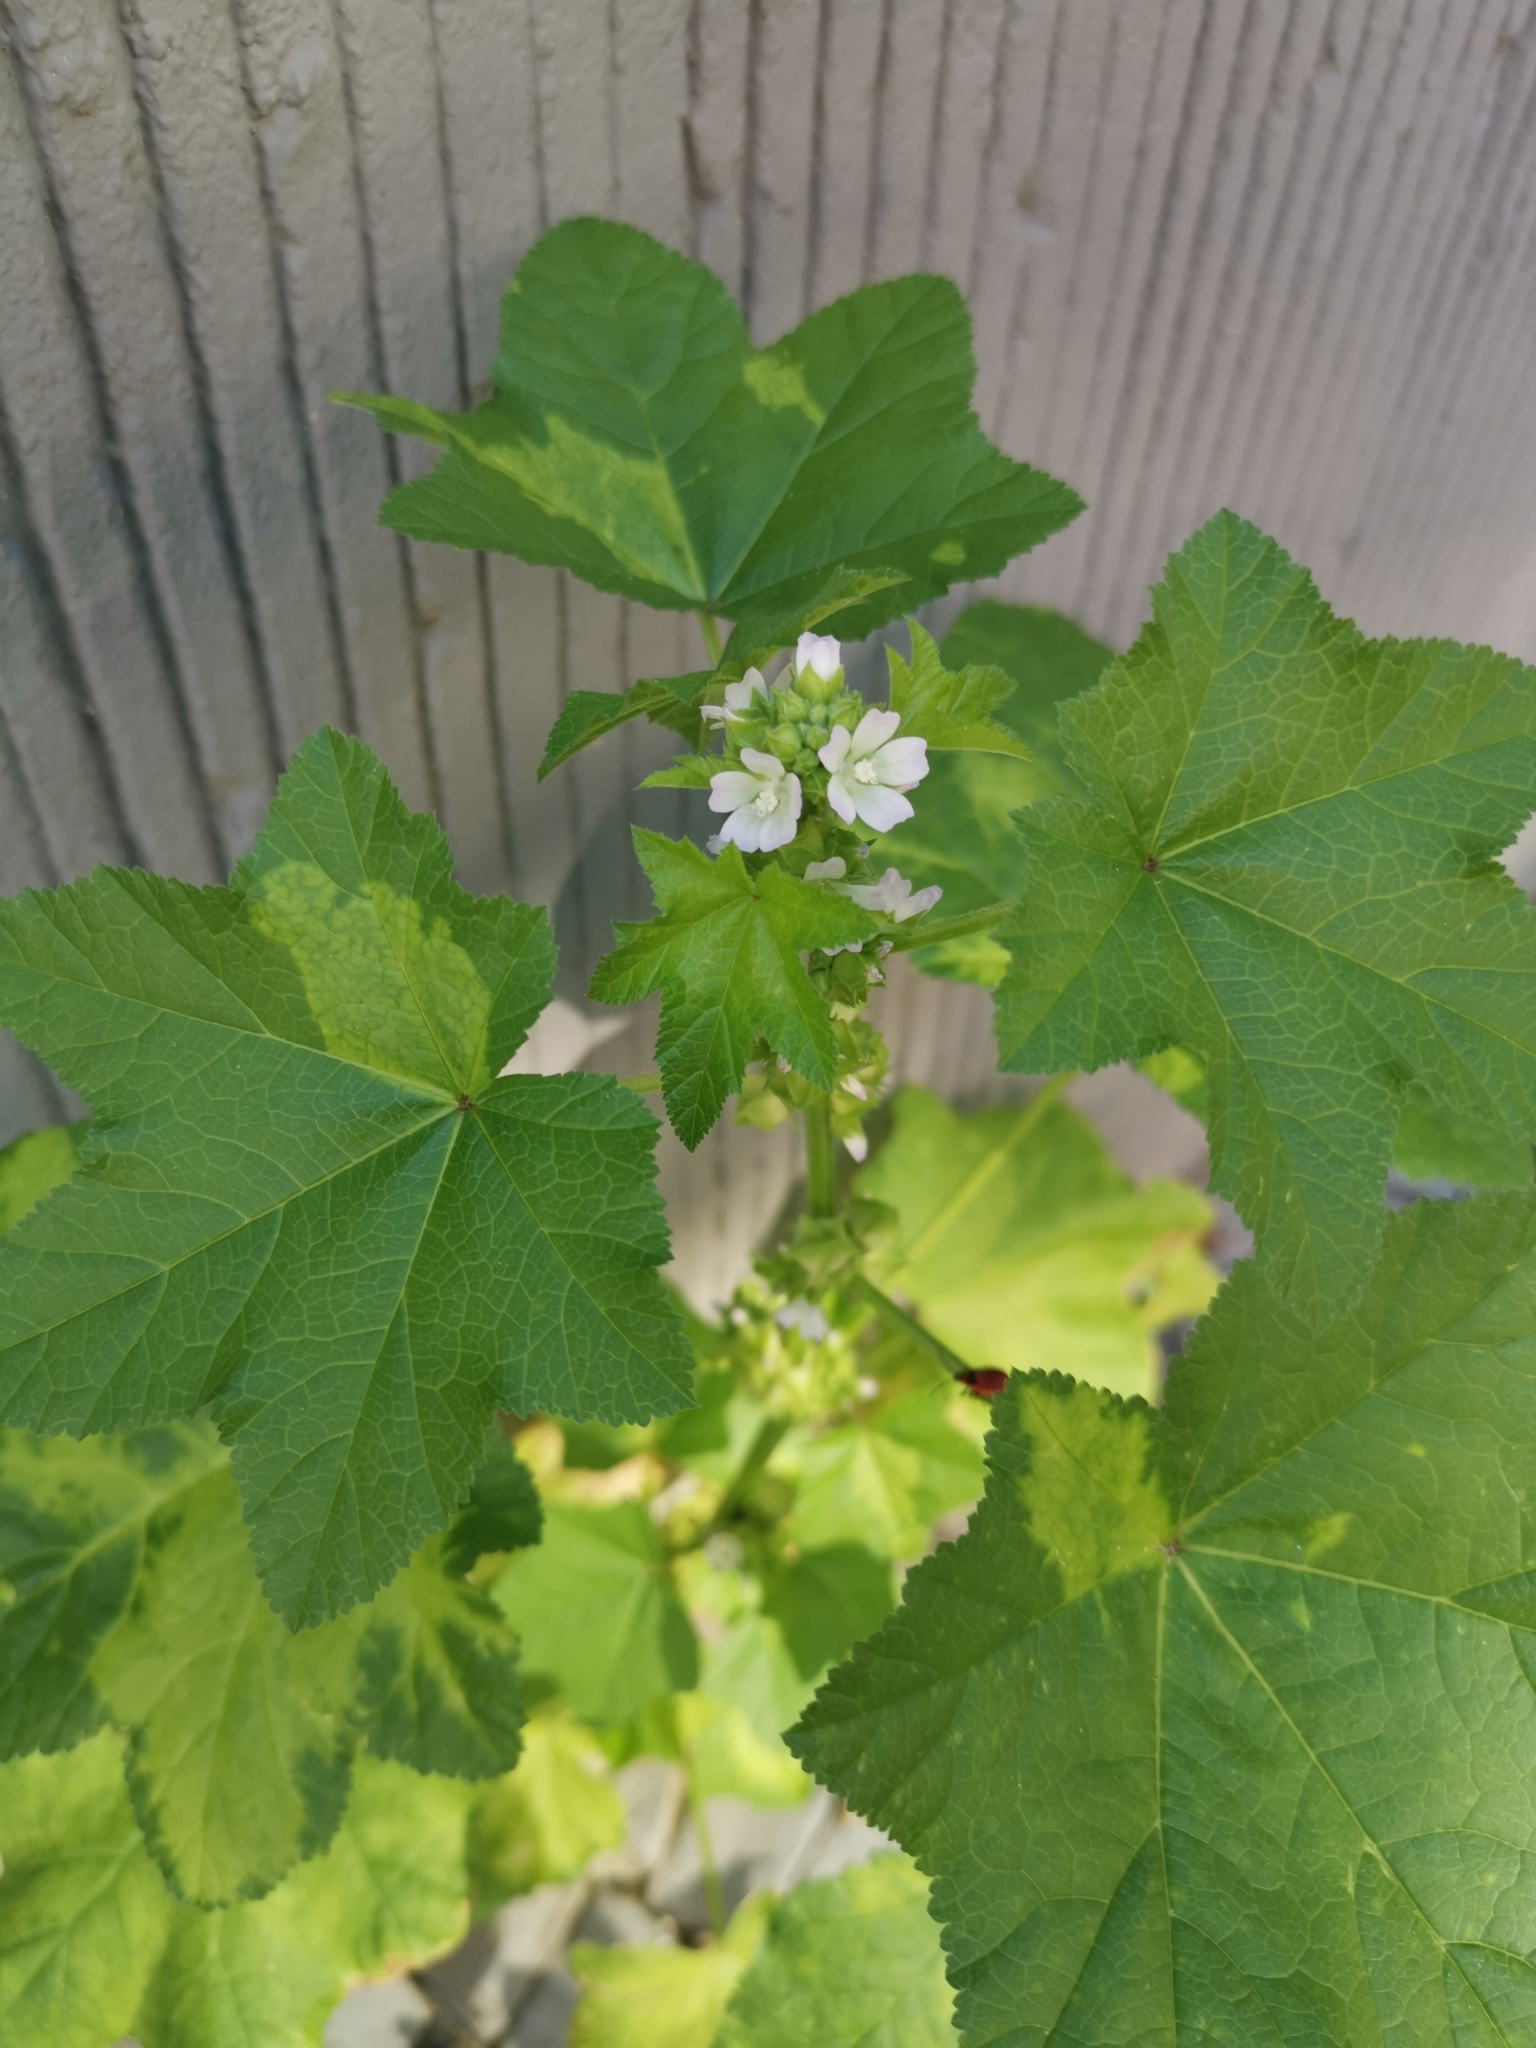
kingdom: Plantae
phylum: Tracheophyta
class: Magnoliopsida
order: Malvales
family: Malvaceae
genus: Malva
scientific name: Malva verticillata
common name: Chinese mallow
